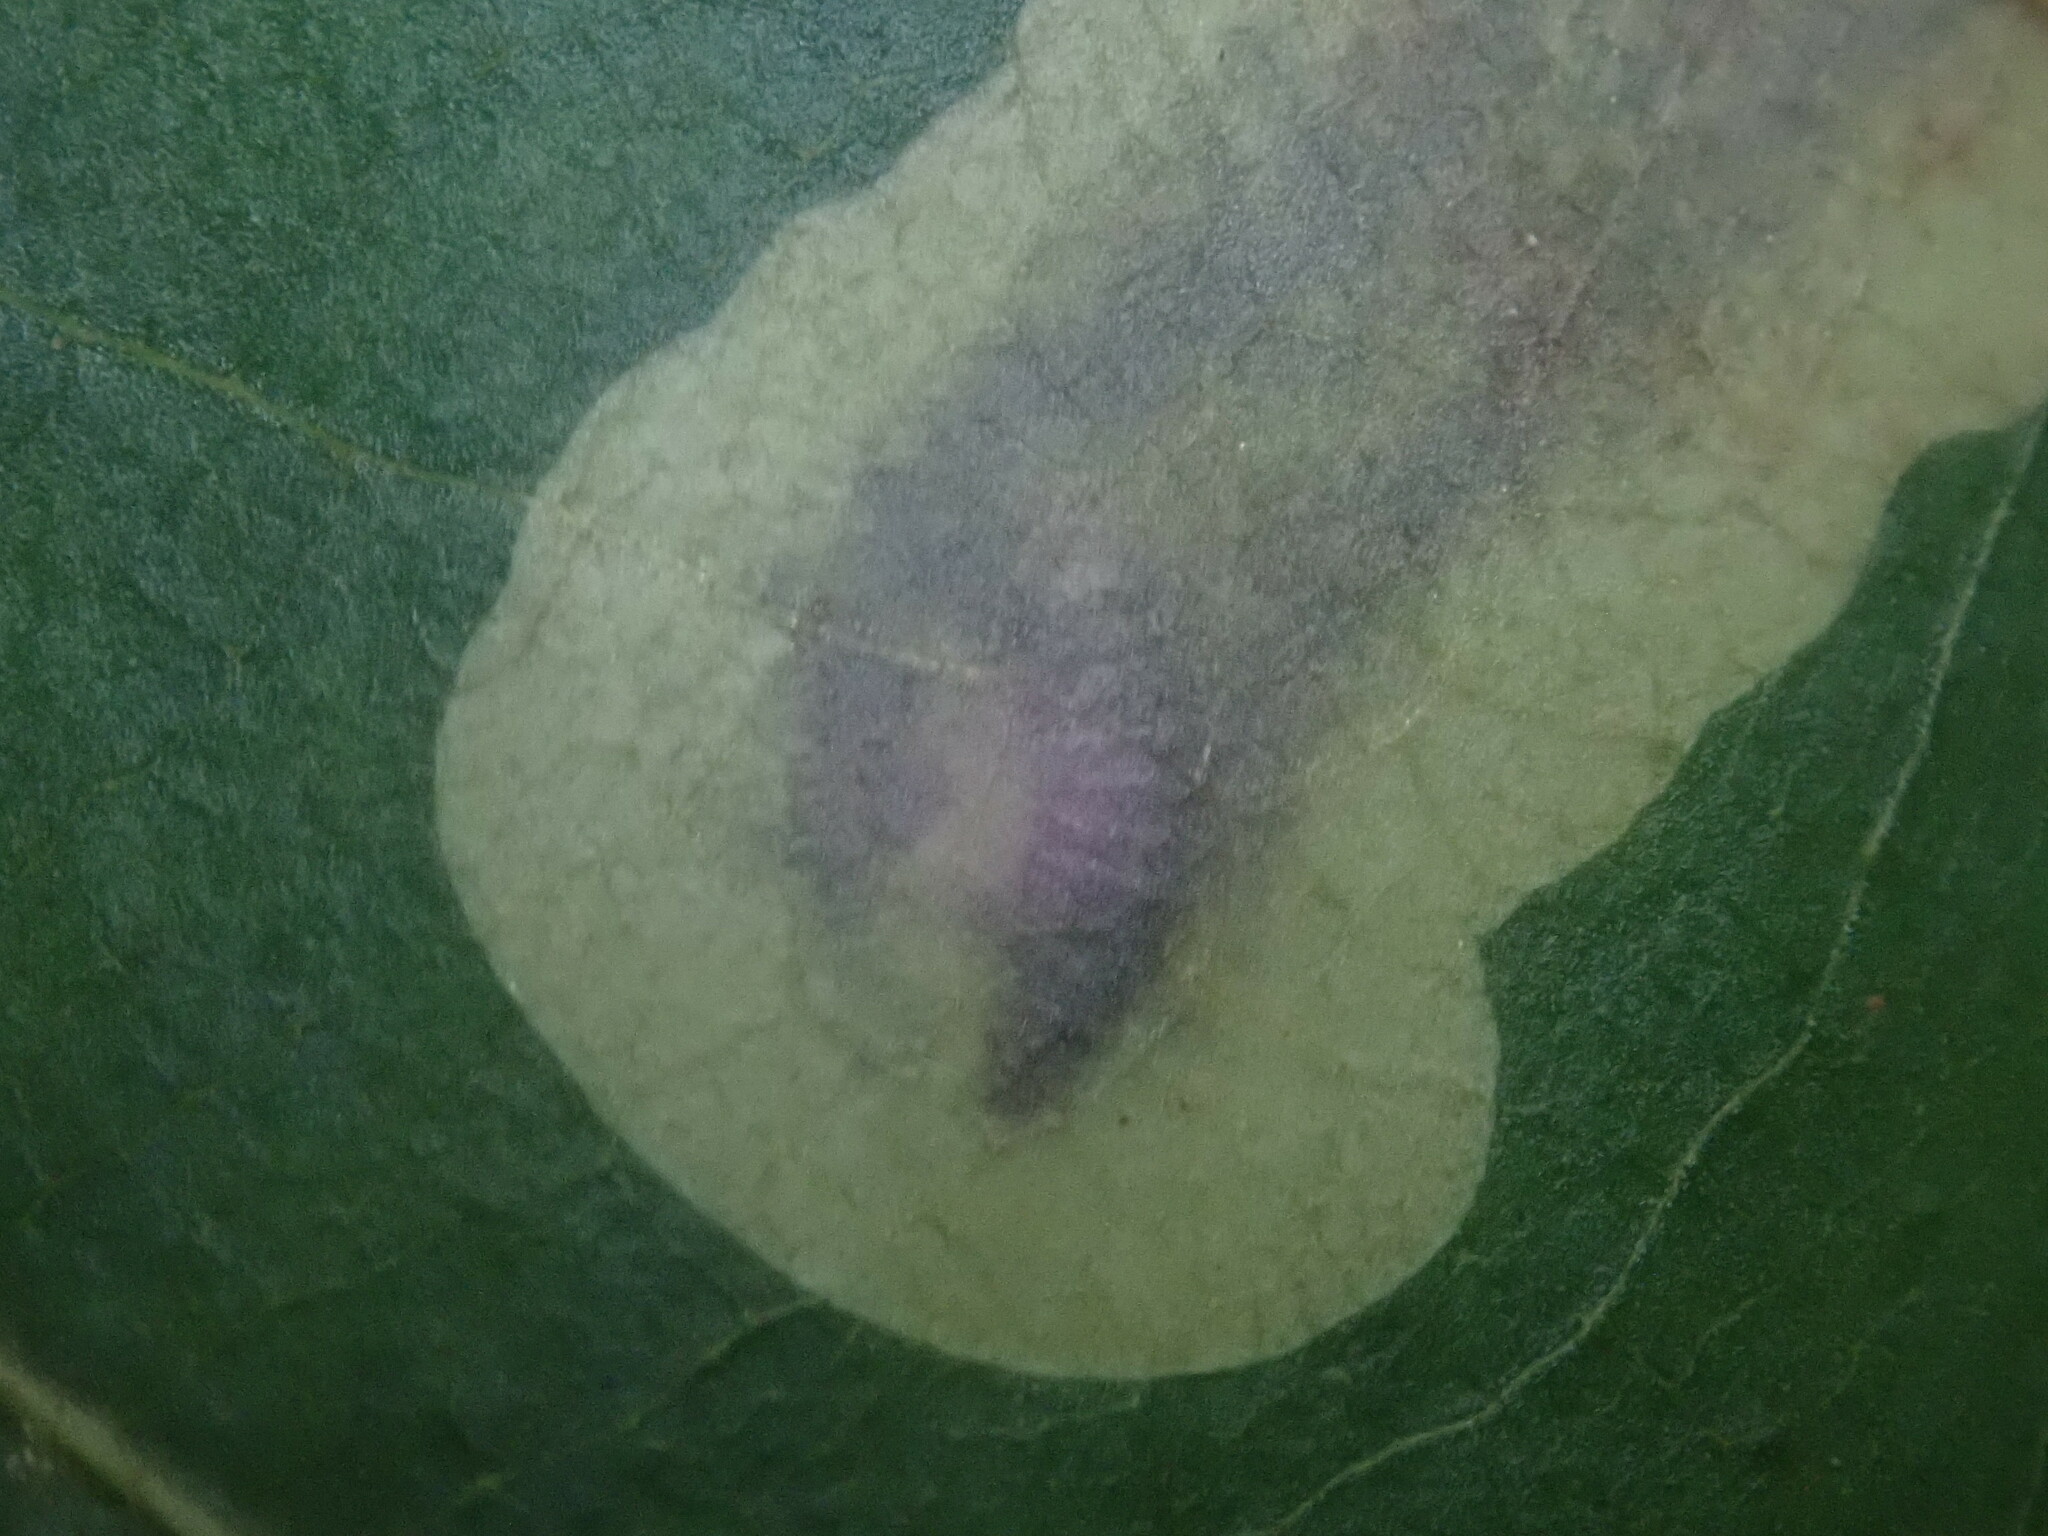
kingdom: Animalia
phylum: Arthropoda
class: Insecta
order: Lepidoptera
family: Gracillariidae
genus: Cameraria
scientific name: Cameraria caryaefoliella
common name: Pecan leafminer moth
